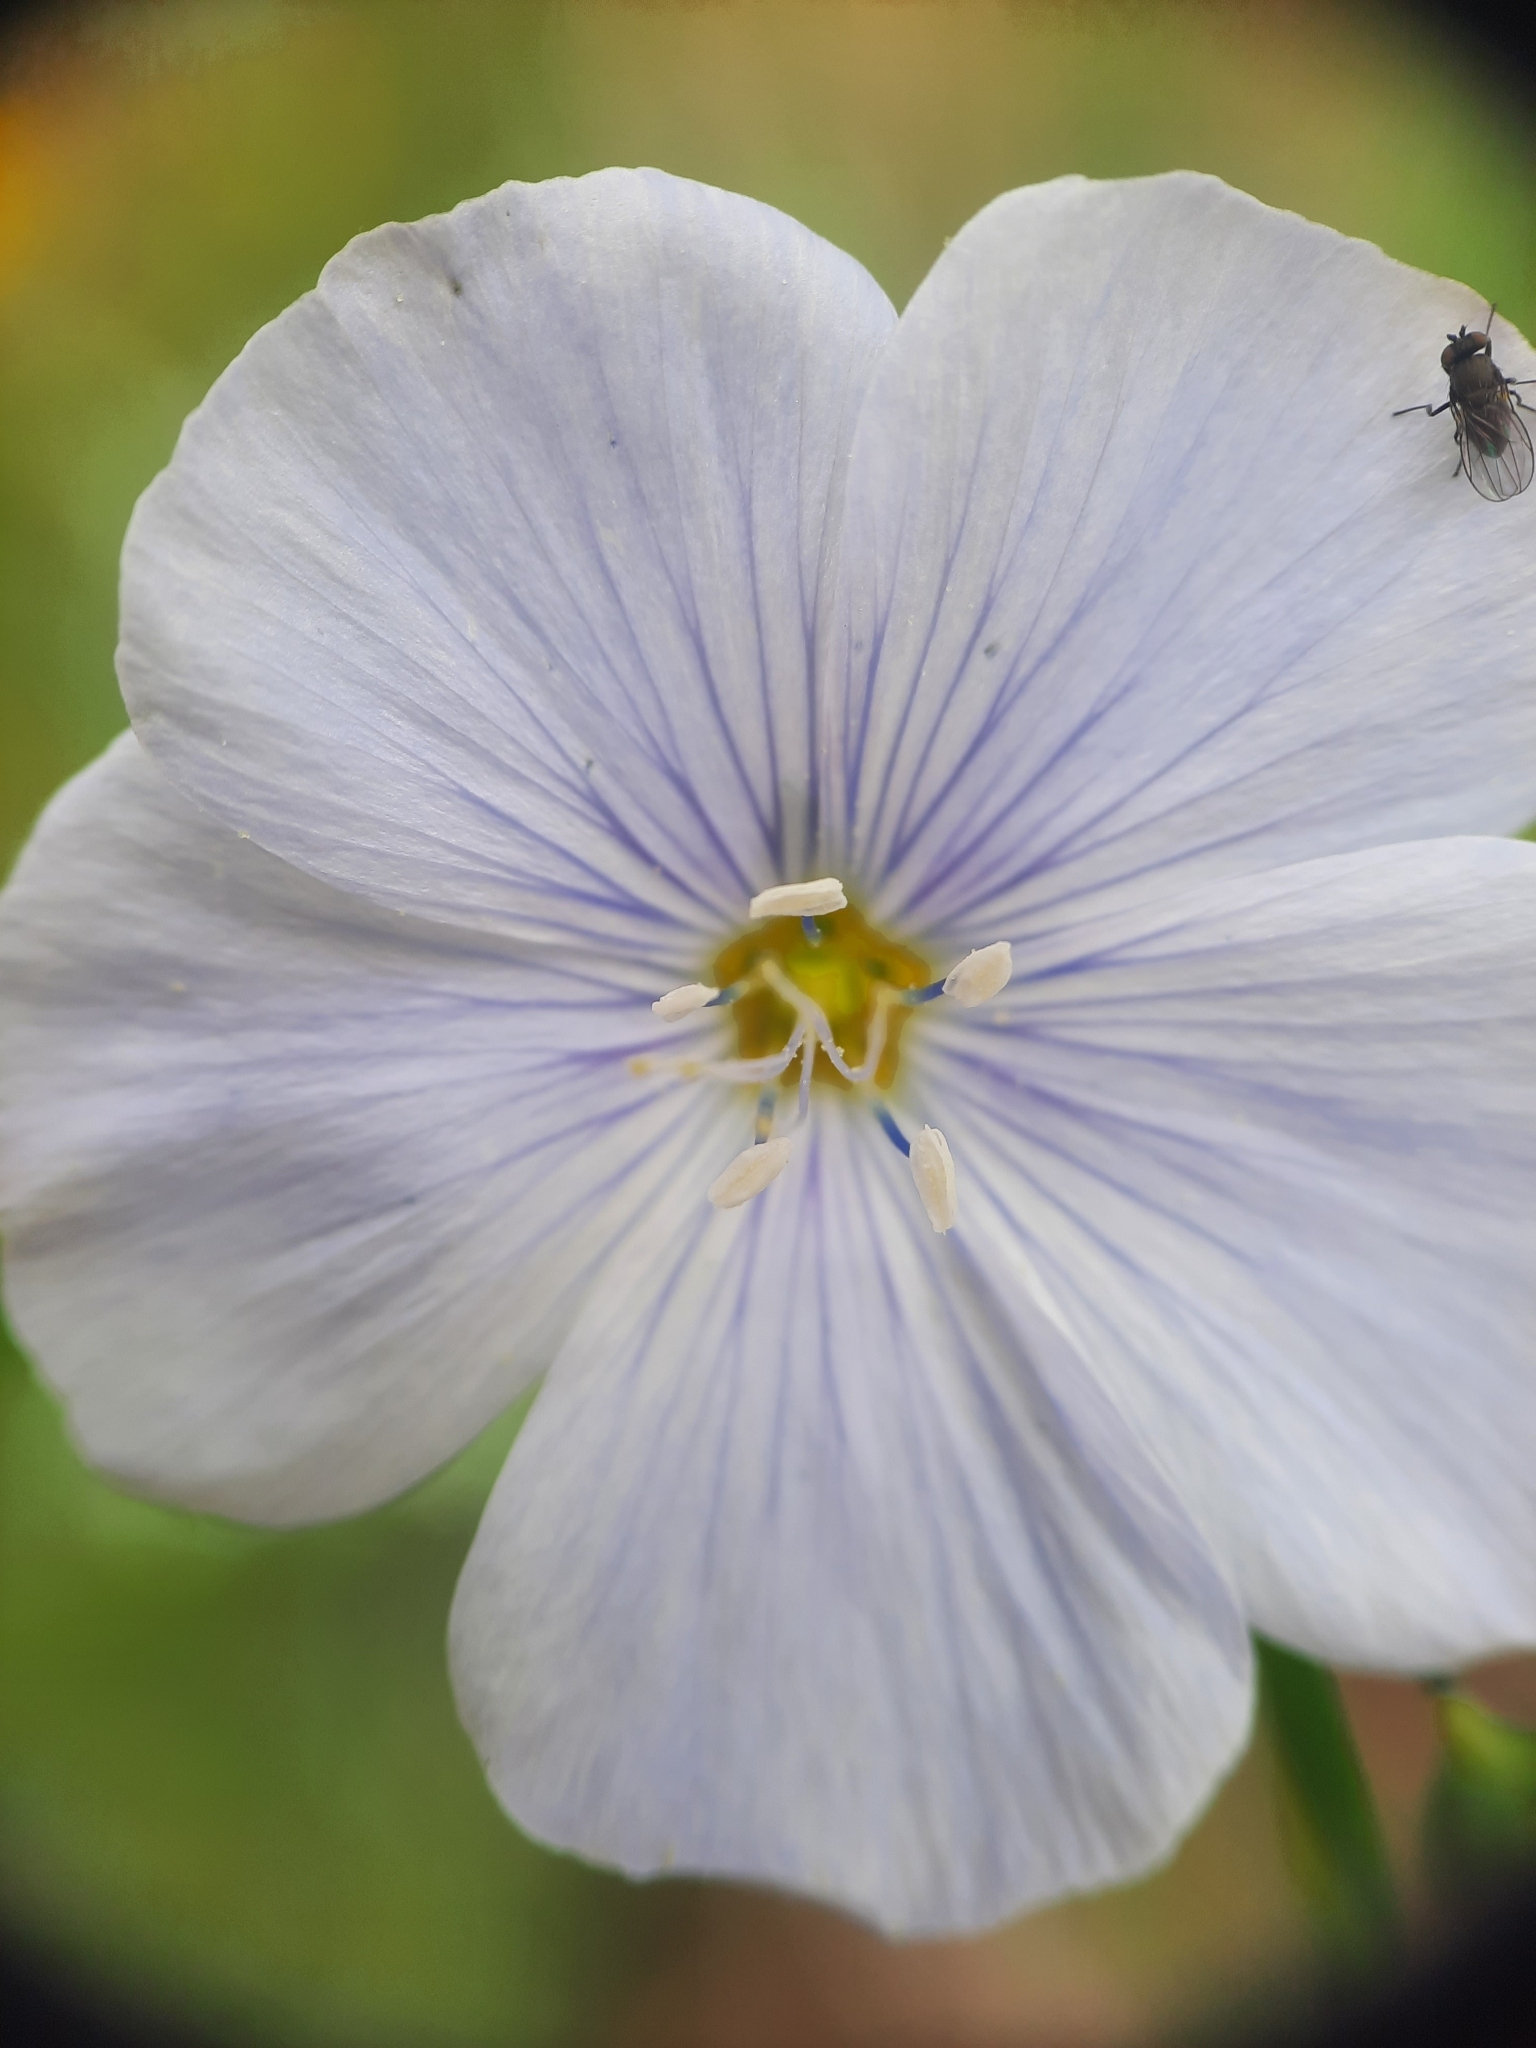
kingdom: Plantae
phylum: Tracheophyta
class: Magnoliopsida
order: Malpighiales
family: Linaceae
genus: Linum
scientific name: Linum lewisii
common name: Prairie flax
